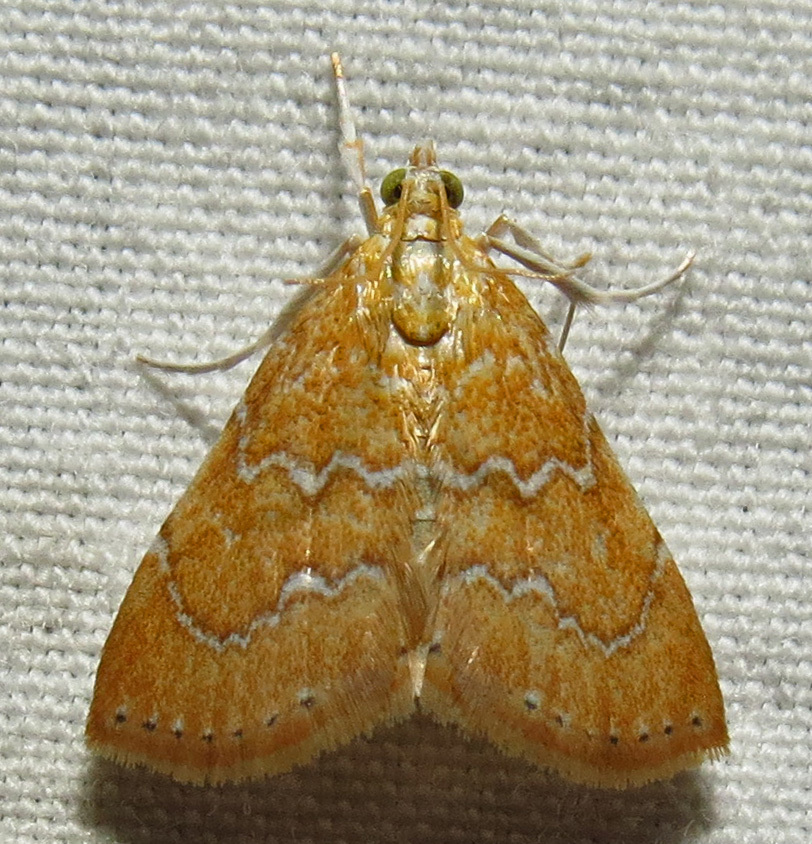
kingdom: Animalia
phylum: Arthropoda
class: Insecta
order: Lepidoptera
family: Crambidae
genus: Glaphyria
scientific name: Glaphyria sesquistrialis
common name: White-roped glaphyria
